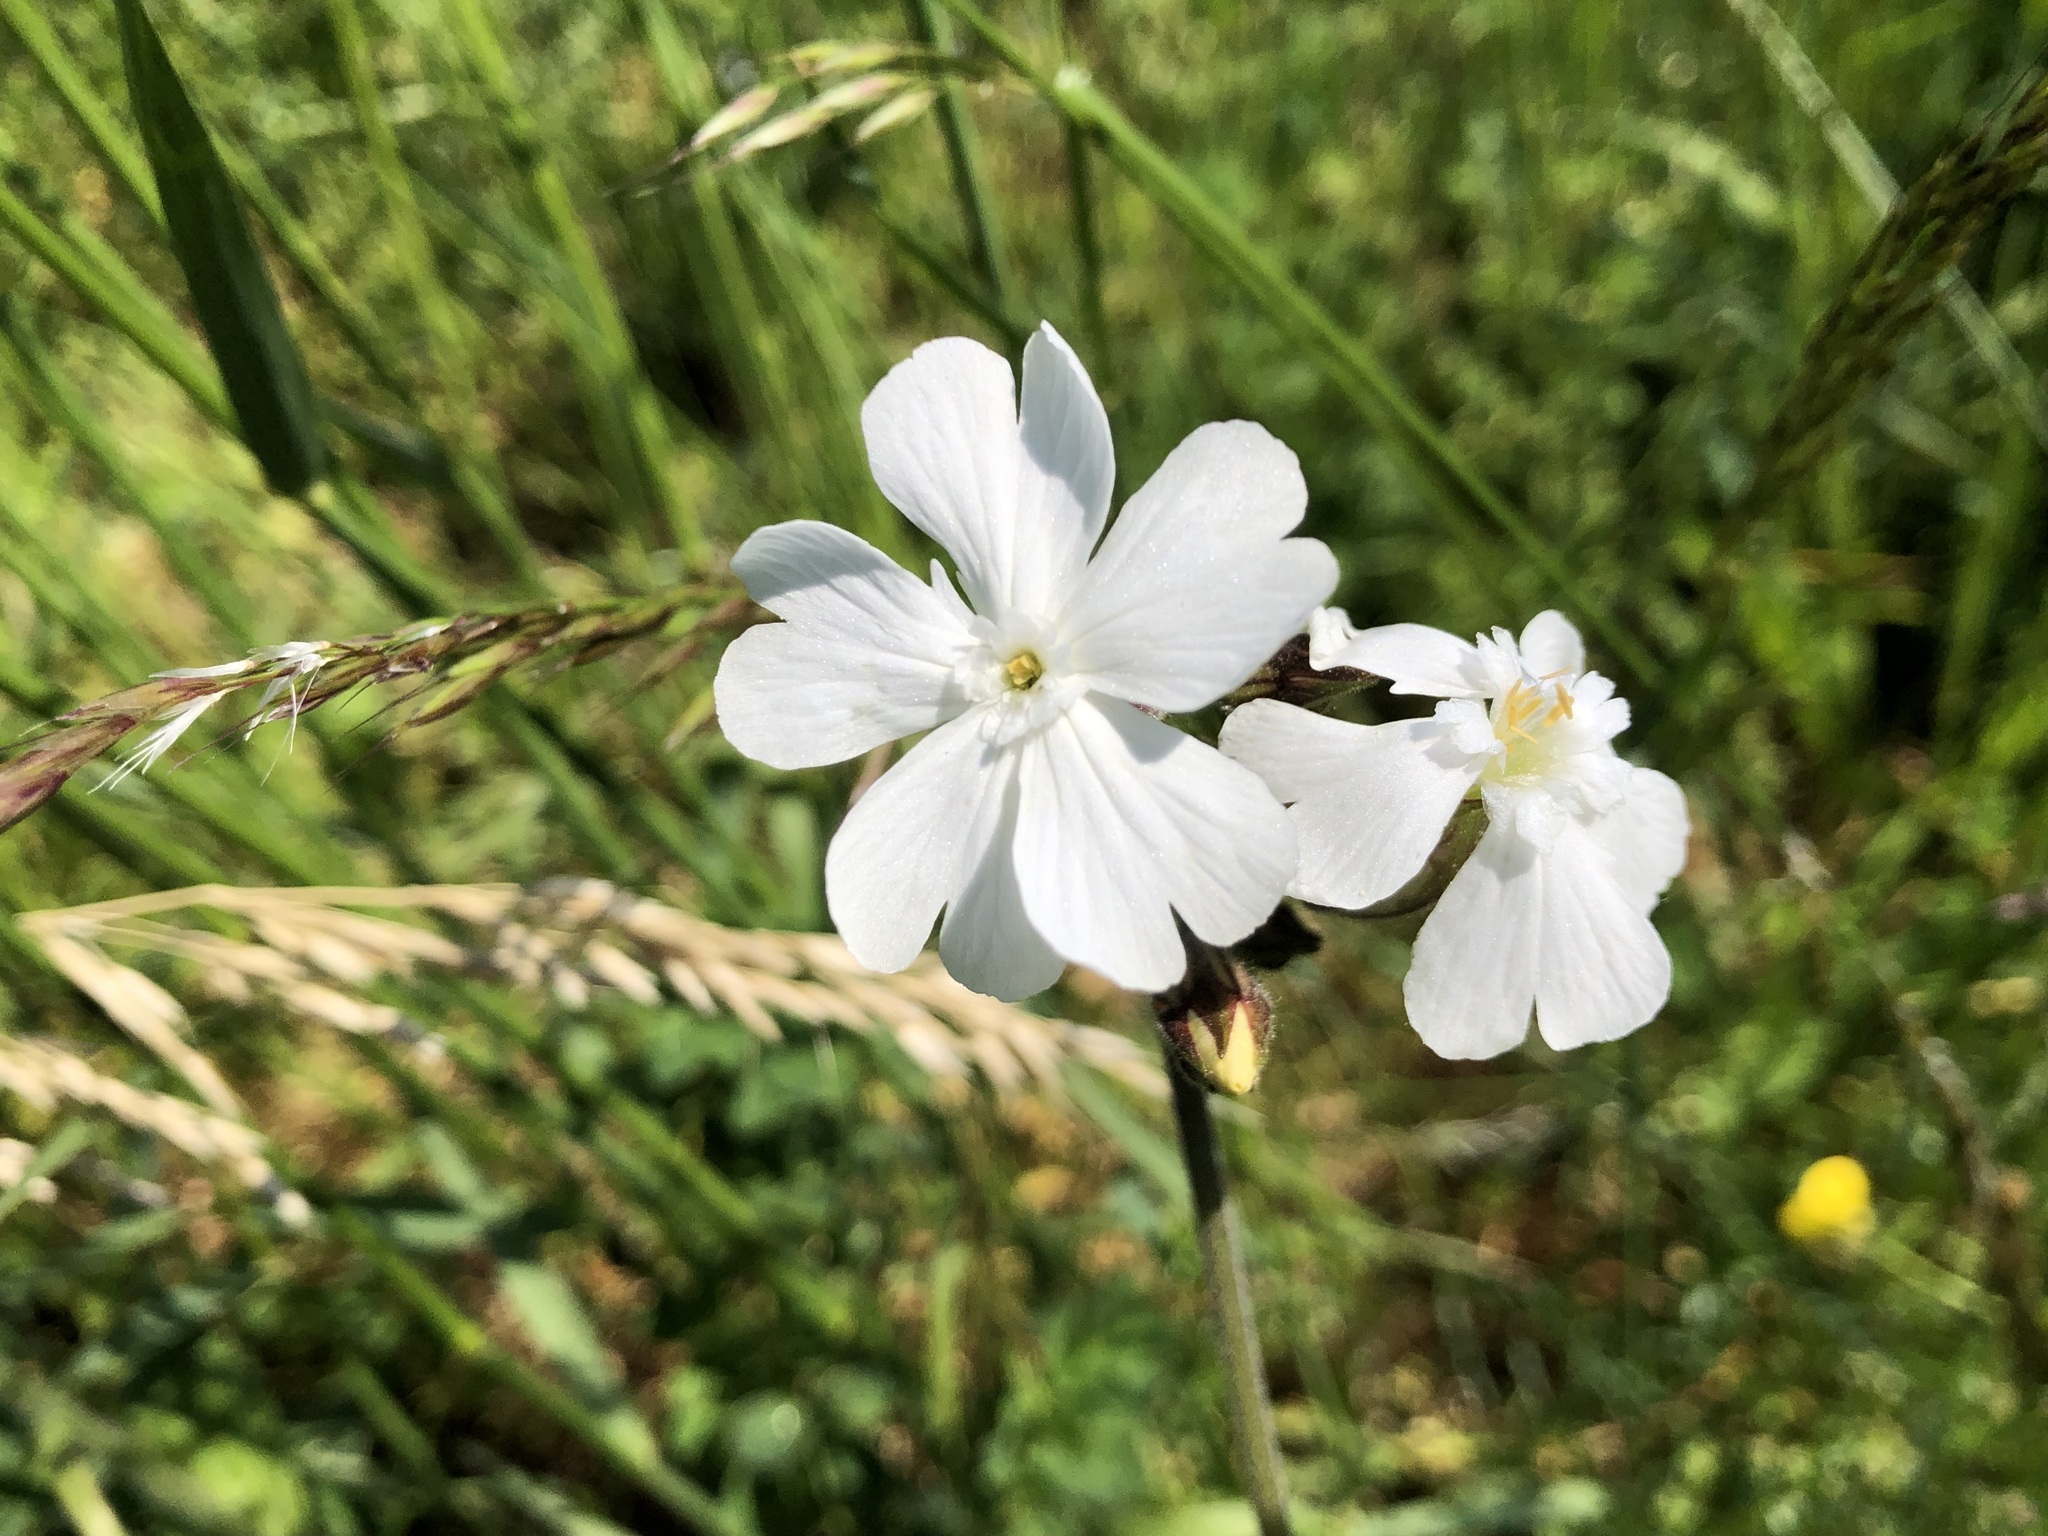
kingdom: Plantae
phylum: Tracheophyta
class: Magnoliopsida
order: Caryophyllales
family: Caryophyllaceae
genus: Silene
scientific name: Silene latifolia
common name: White campion
